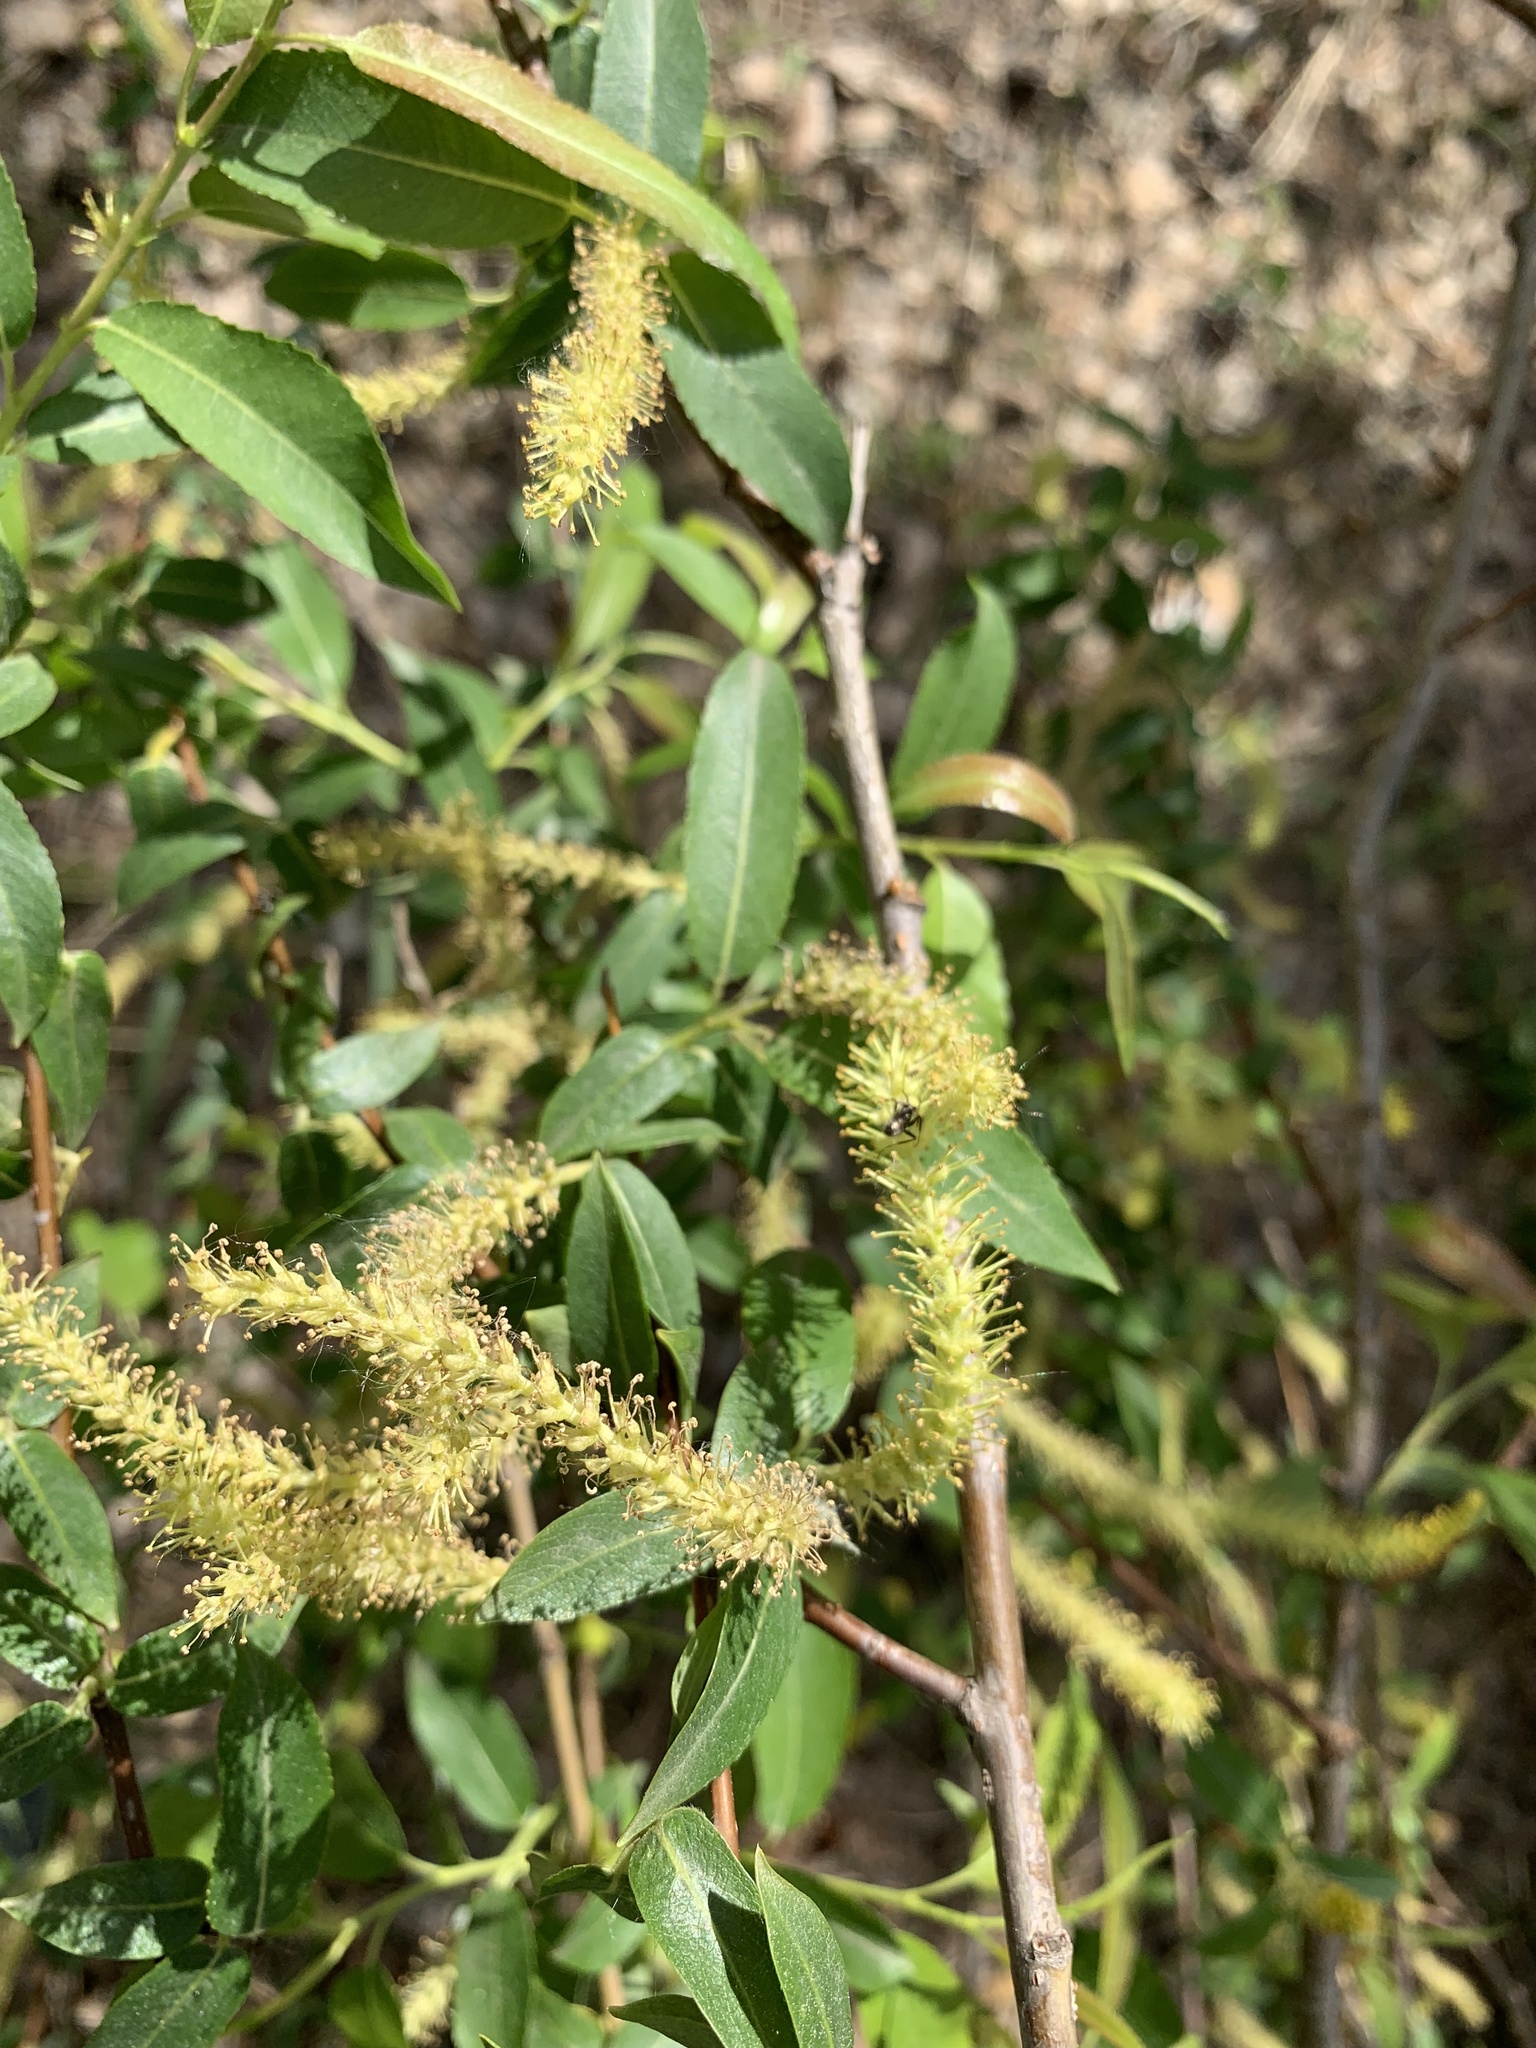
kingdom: Plantae
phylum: Tracheophyta
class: Magnoliopsida
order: Malpighiales
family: Salicaceae
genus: Salix
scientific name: Salix triandra
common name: Almond willow
